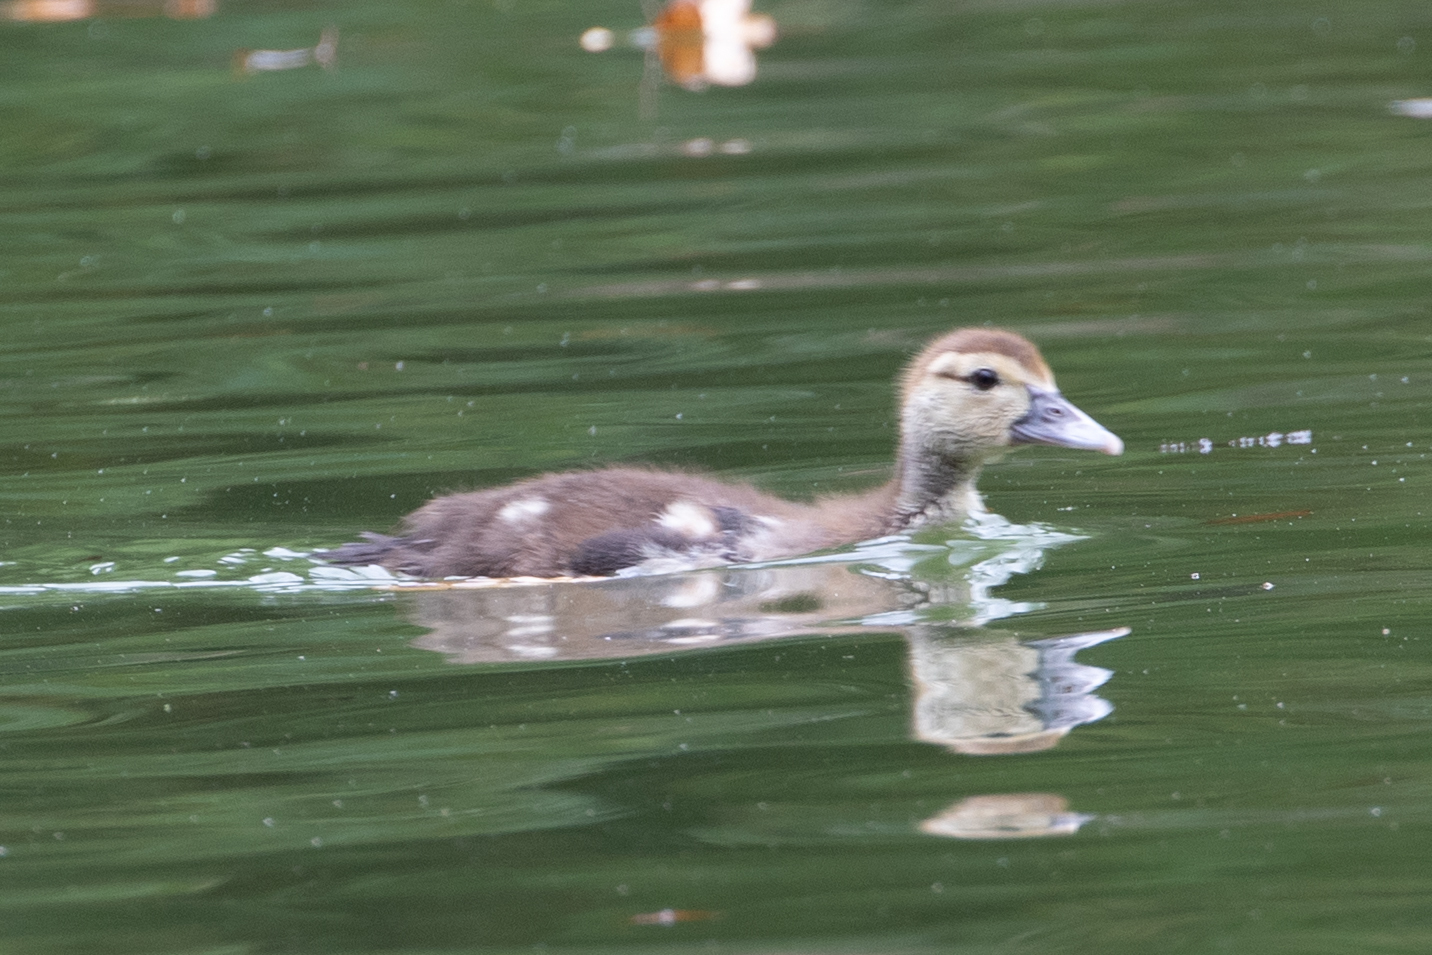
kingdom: Animalia
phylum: Chordata
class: Aves
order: Anseriformes
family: Anatidae
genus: Anas
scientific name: Anas platyrhynchos
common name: Mallard
